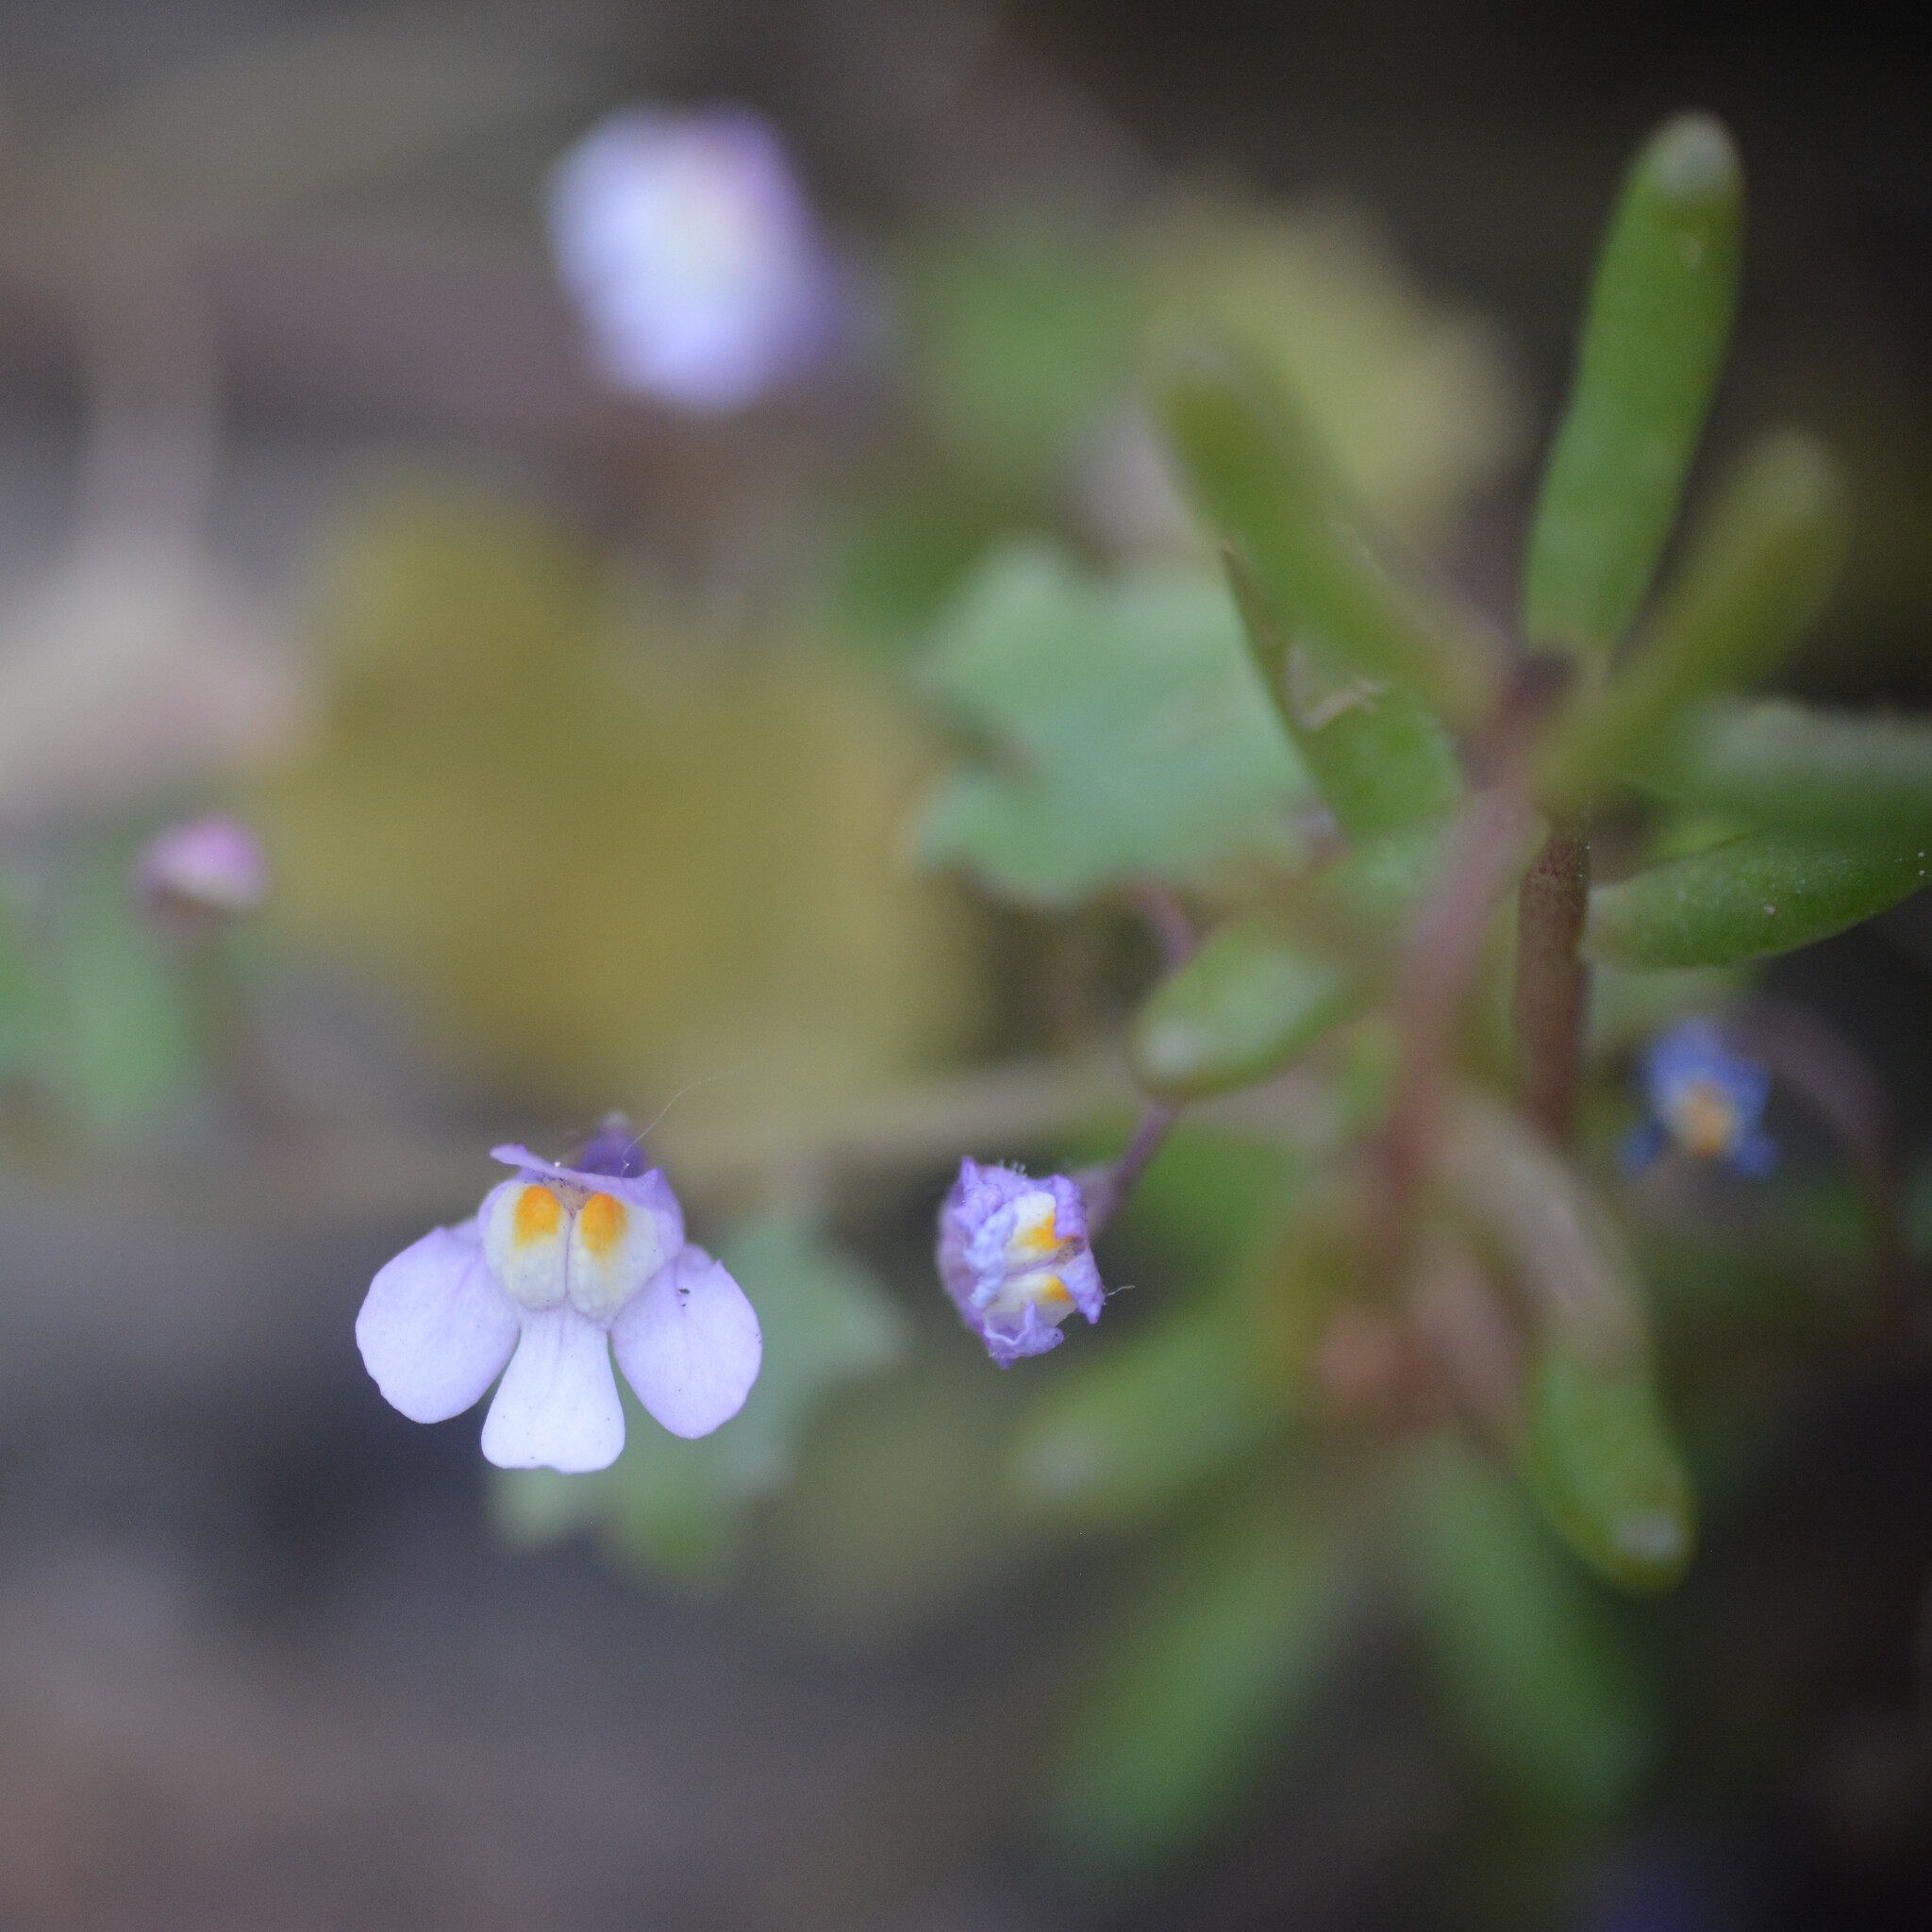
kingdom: Plantae
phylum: Tracheophyta
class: Magnoliopsida
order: Lamiales
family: Plantaginaceae
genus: Cymbalaria
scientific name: Cymbalaria muralis
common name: Ivy-leaved toadflax
